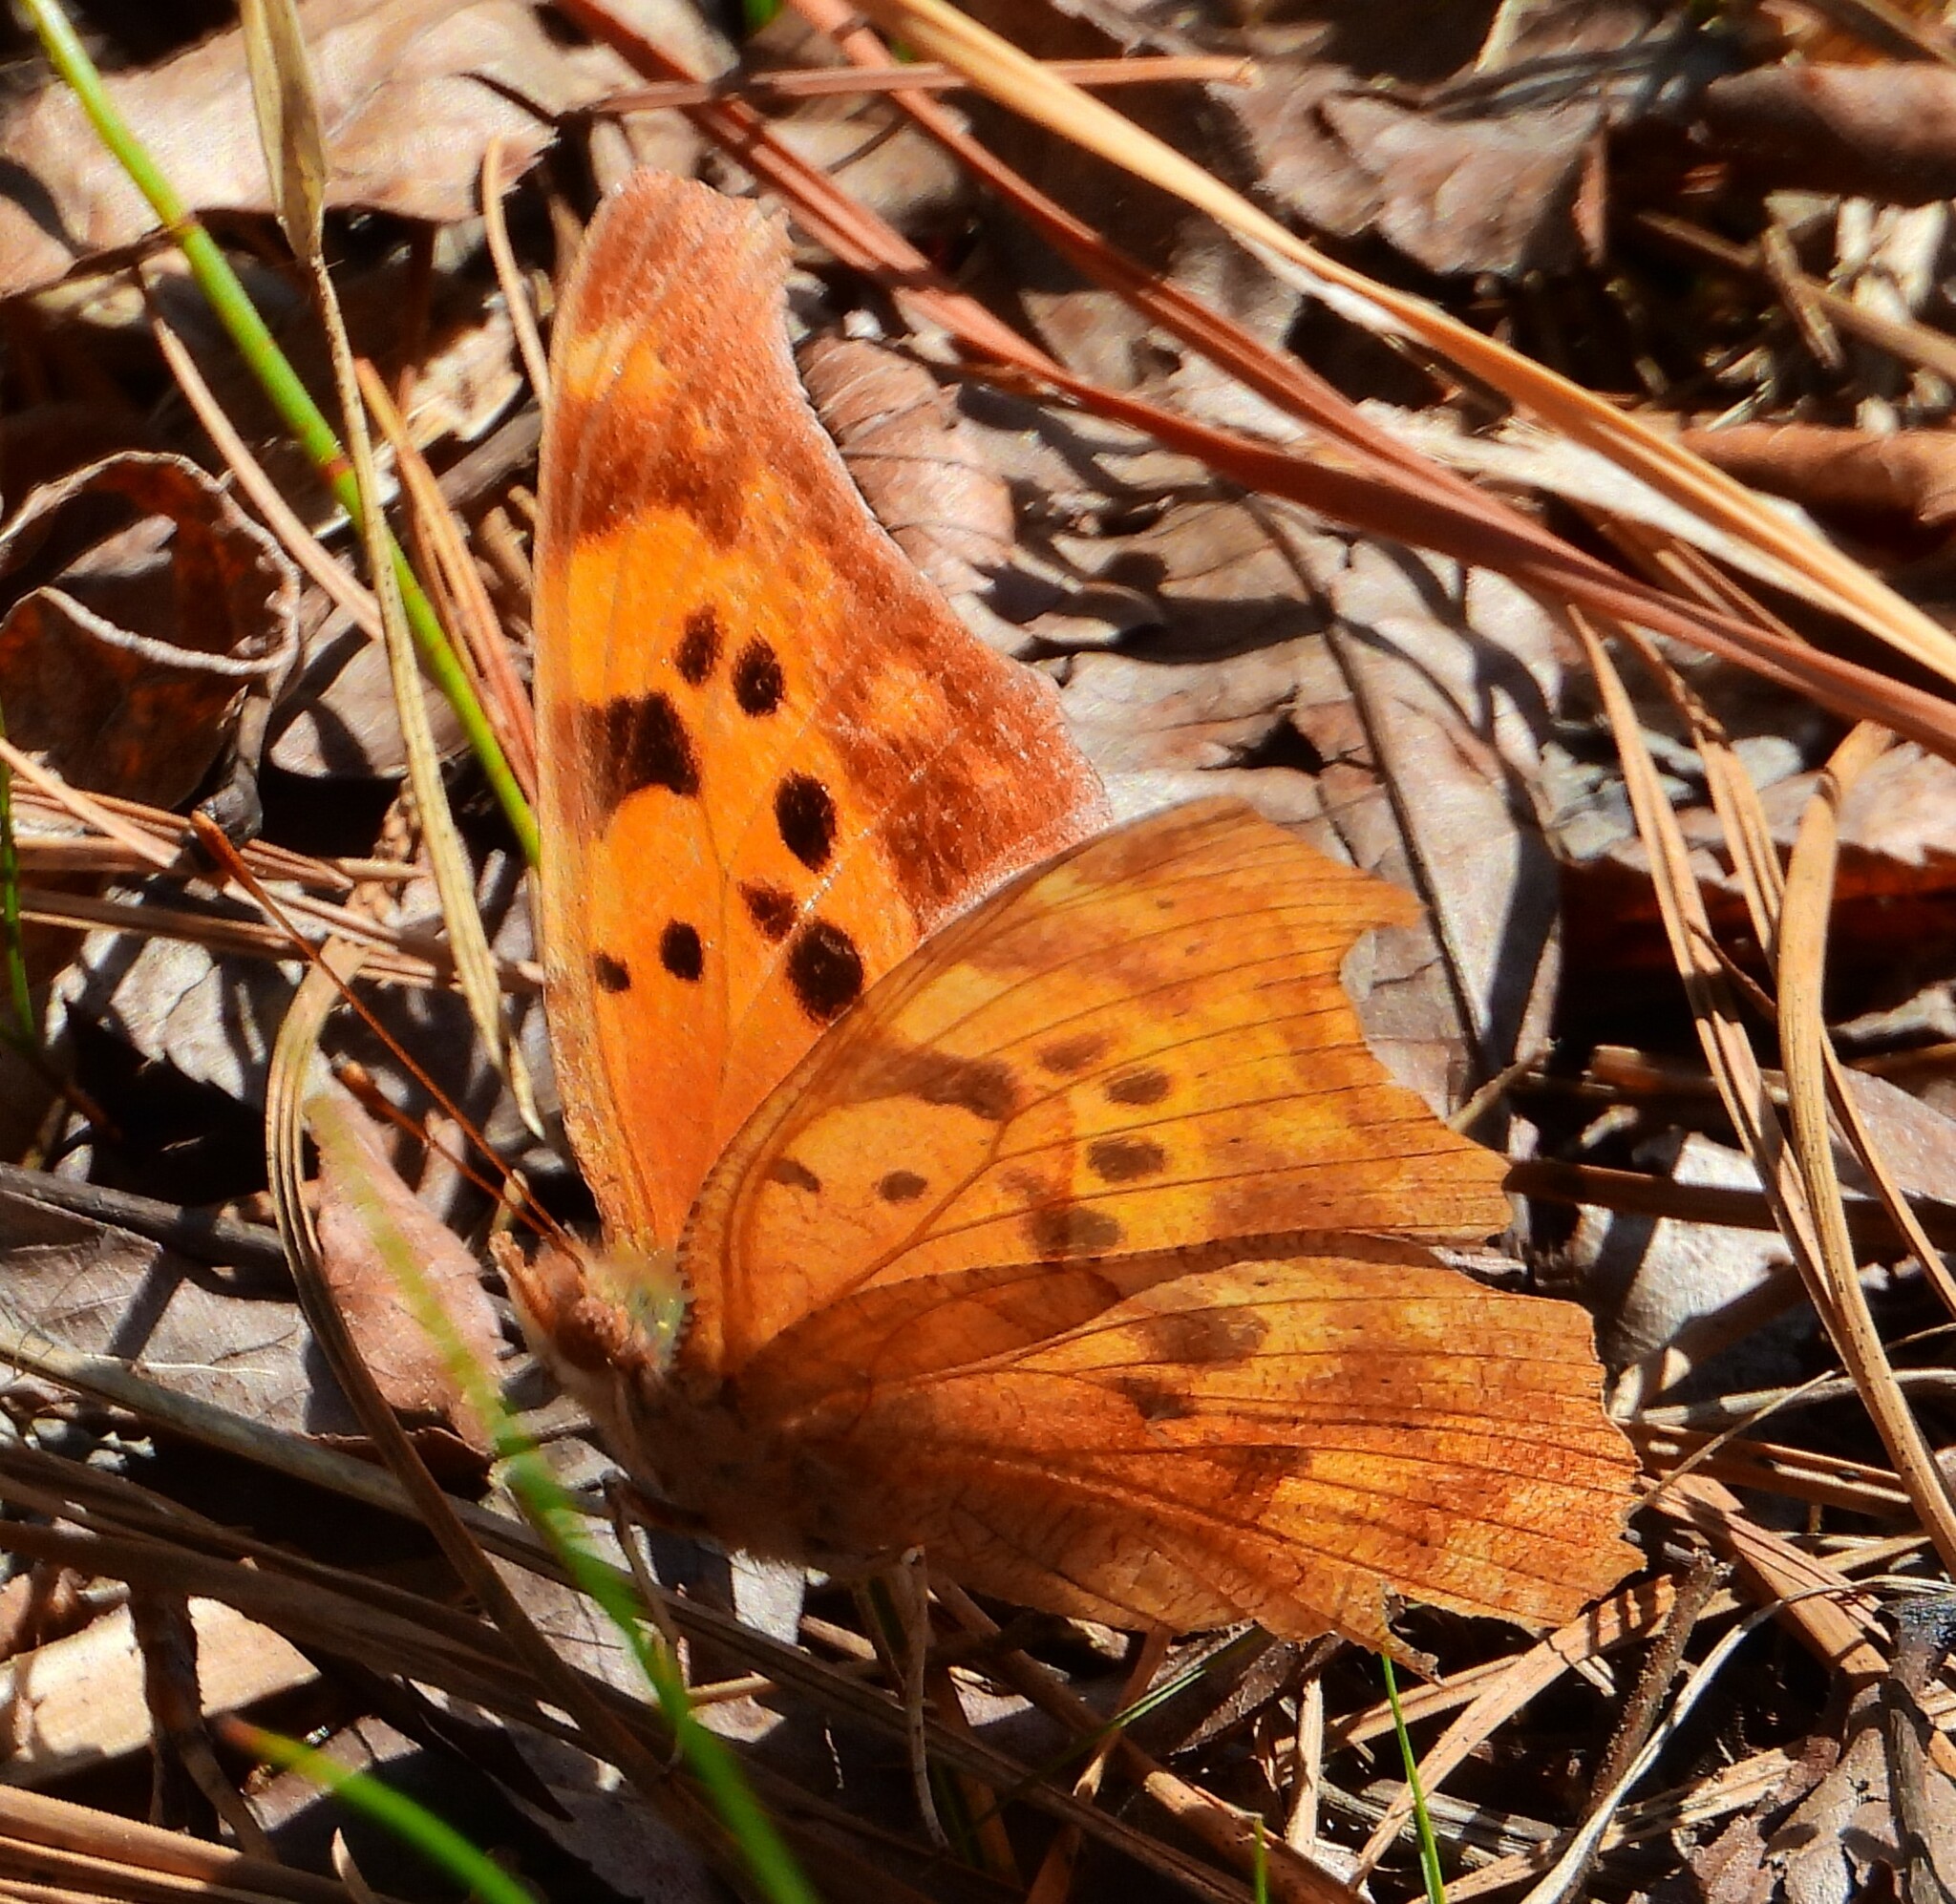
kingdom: Animalia
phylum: Arthropoda
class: Insecta
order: Lepidoptera
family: Nymphalidae
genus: Polygonia
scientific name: Polygonia interrogationis
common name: Question mark
